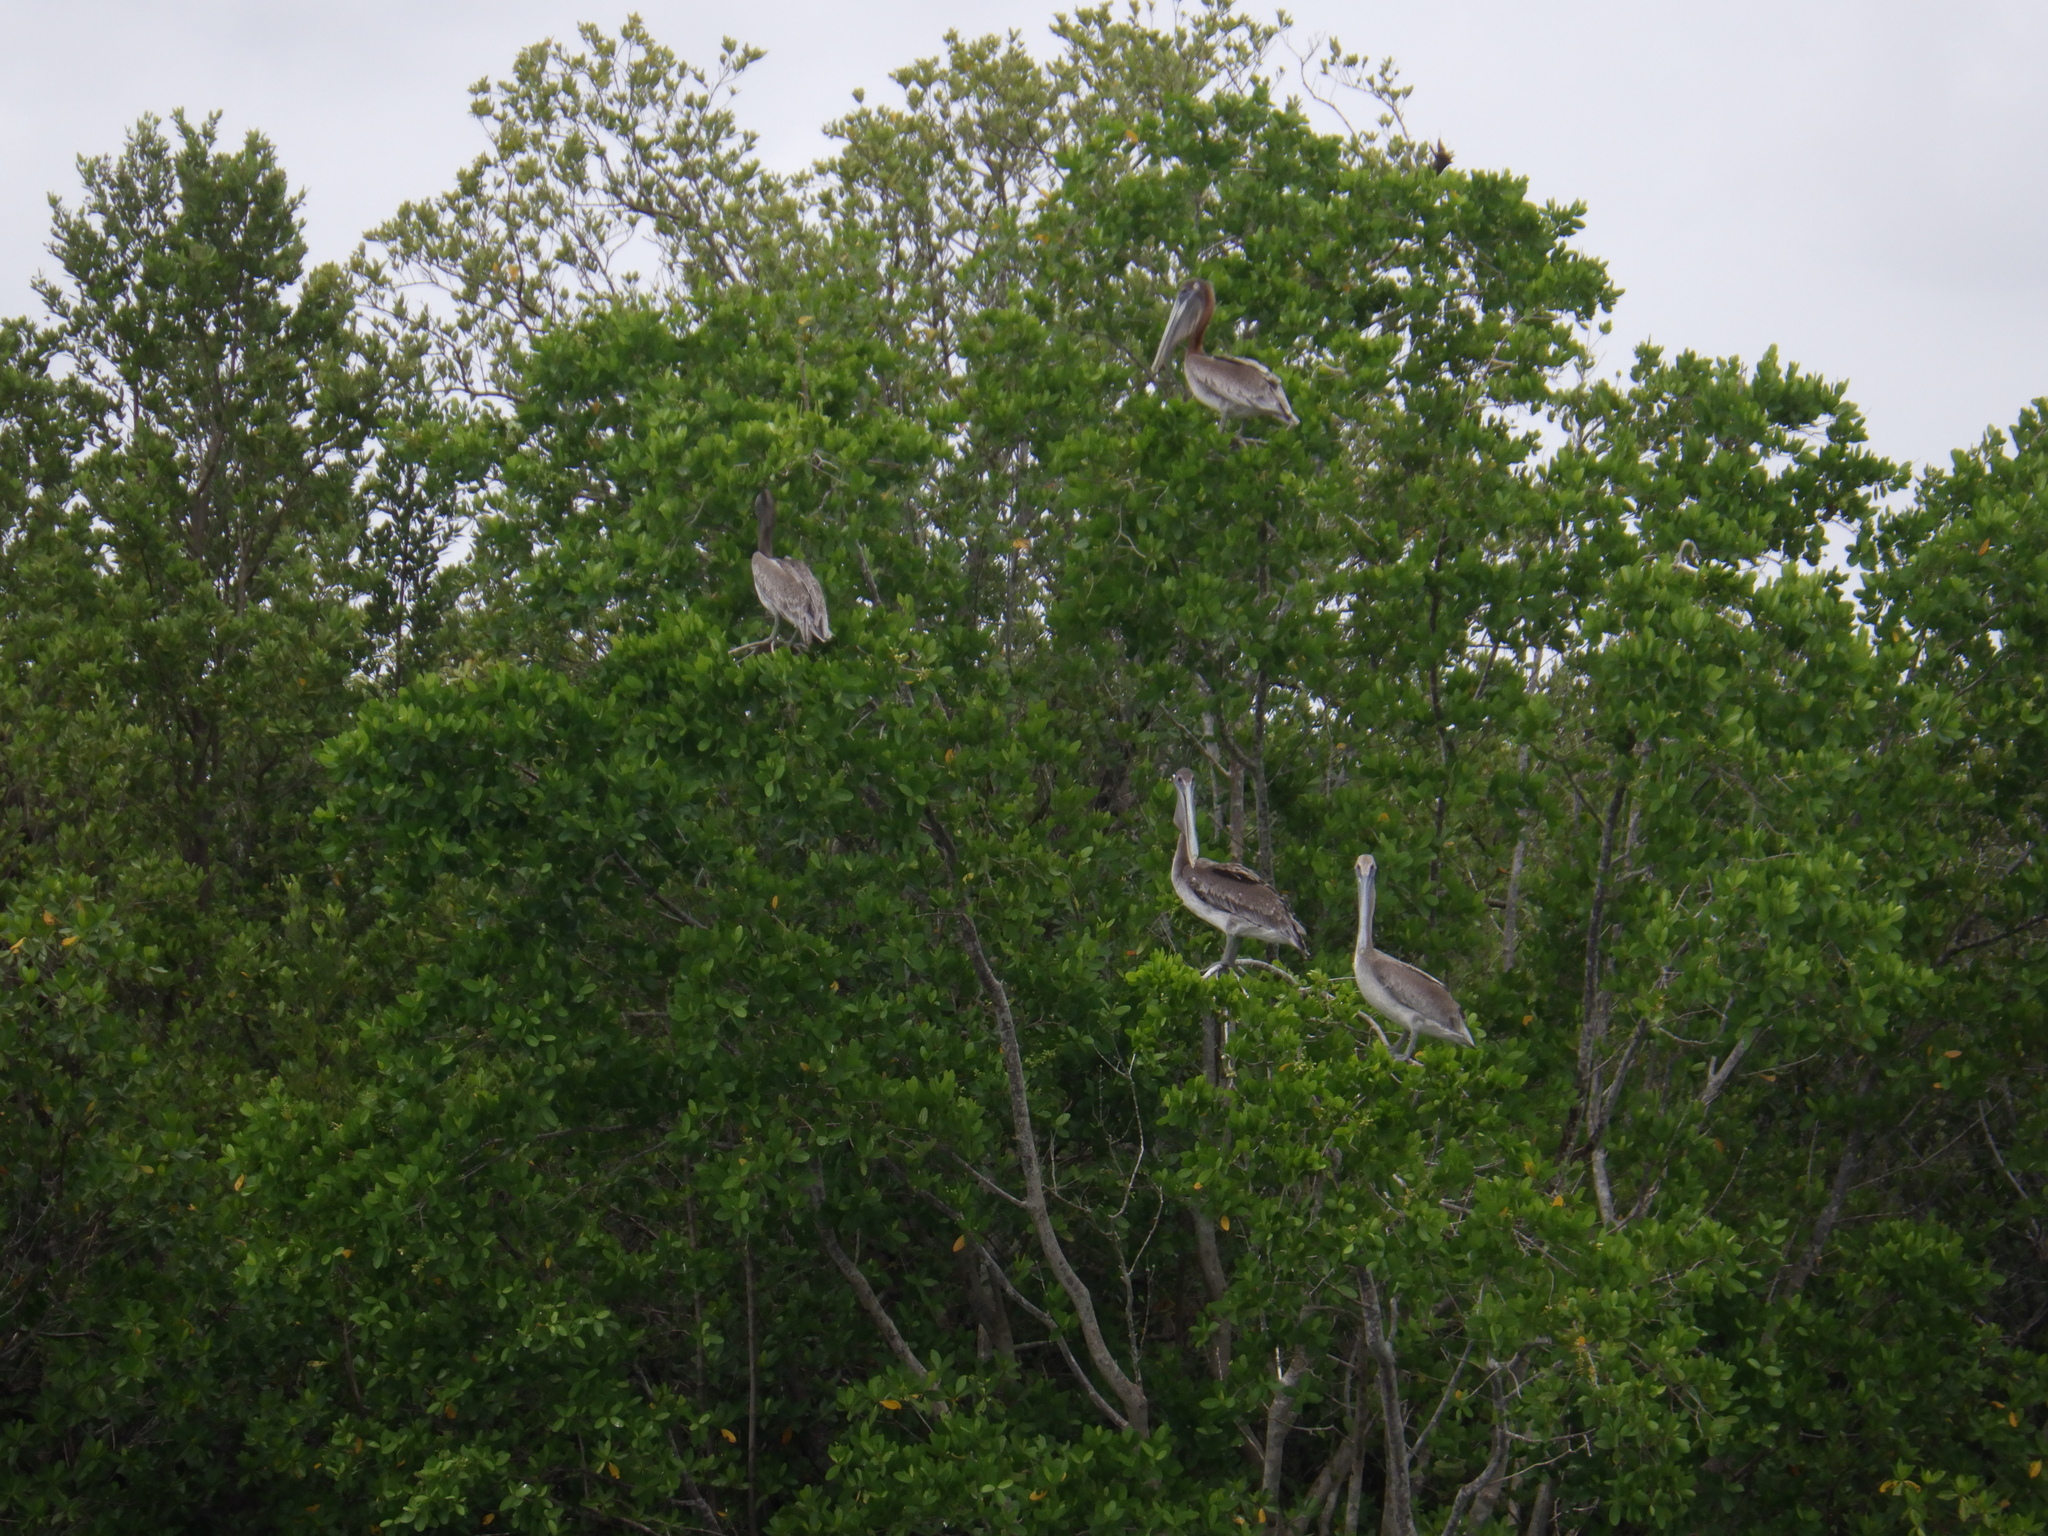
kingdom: Animalia
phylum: Chordata
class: Aves
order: Pelecaniformes
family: Pelecanidae
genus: Pelecanus
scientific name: Pelecanus occidentalis
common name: Brown pelican
